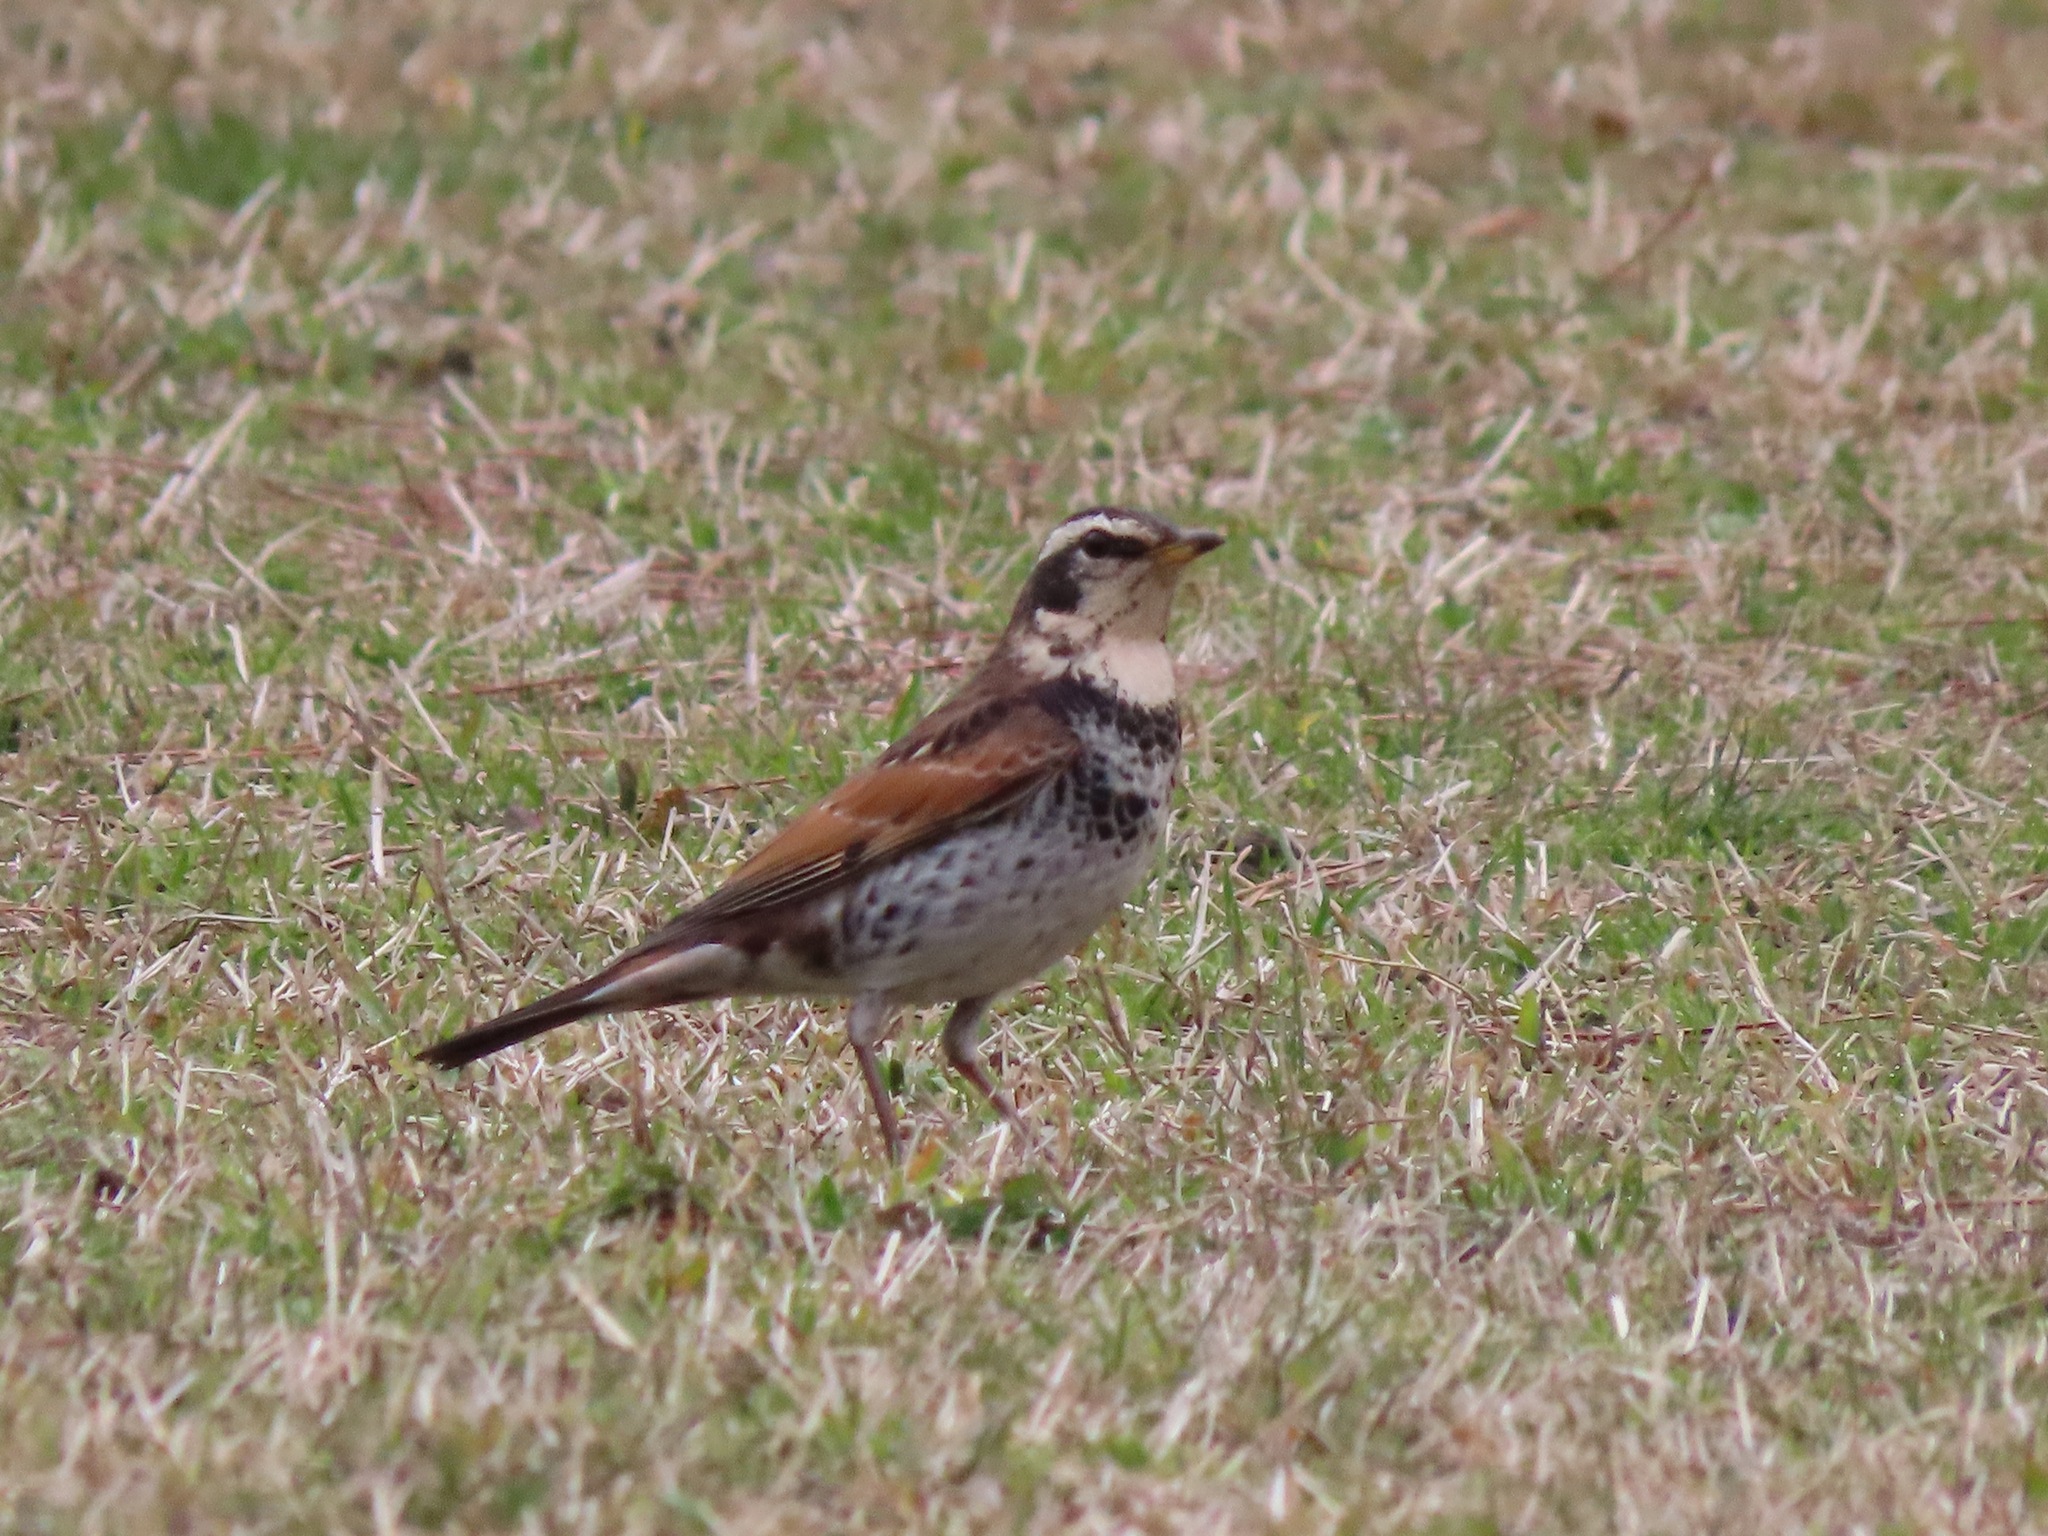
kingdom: Animalia
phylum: Chordata
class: Aves
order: Passeriformes
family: Turdidae
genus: Turdus
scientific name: Turdus eunomus
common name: Dusky thrush
